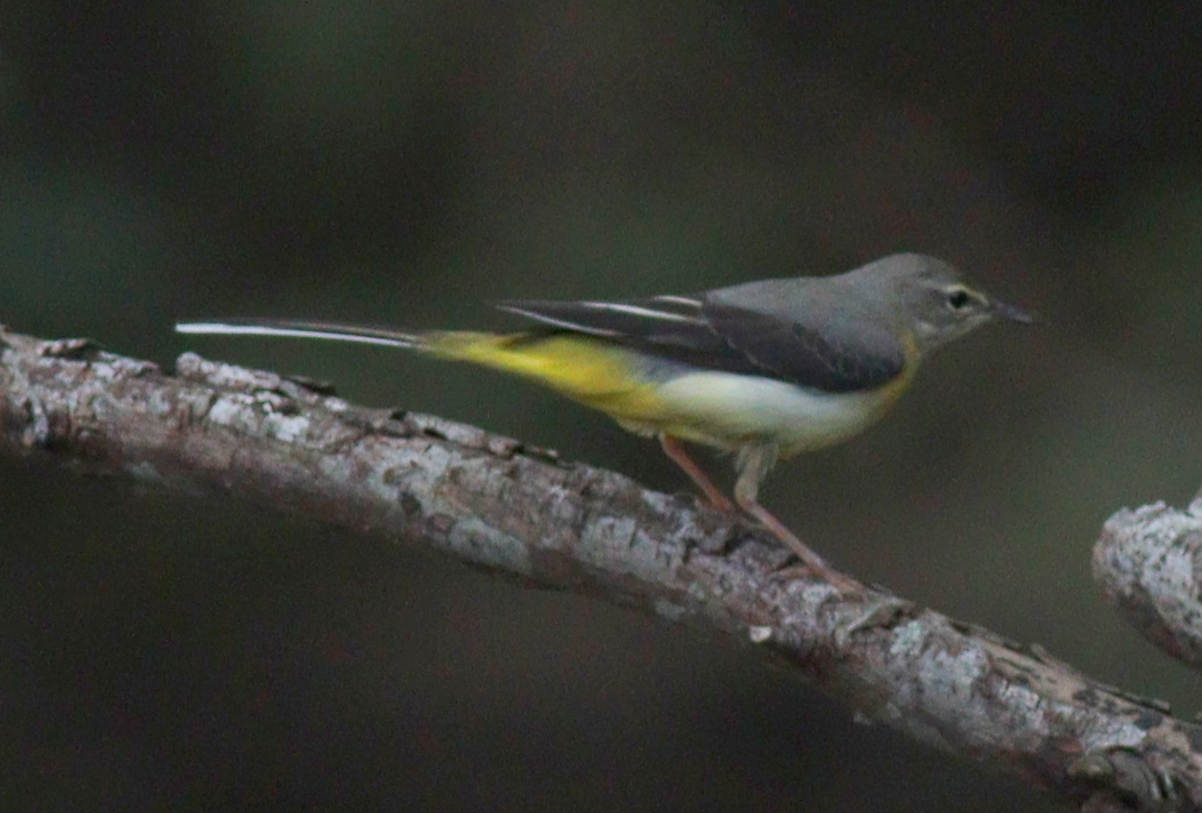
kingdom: Animalia
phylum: Chordata
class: Aves
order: Passeriformes
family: Motacillidae
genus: Motacilla
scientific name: Motacilla cinerea
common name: Grey wagtail
